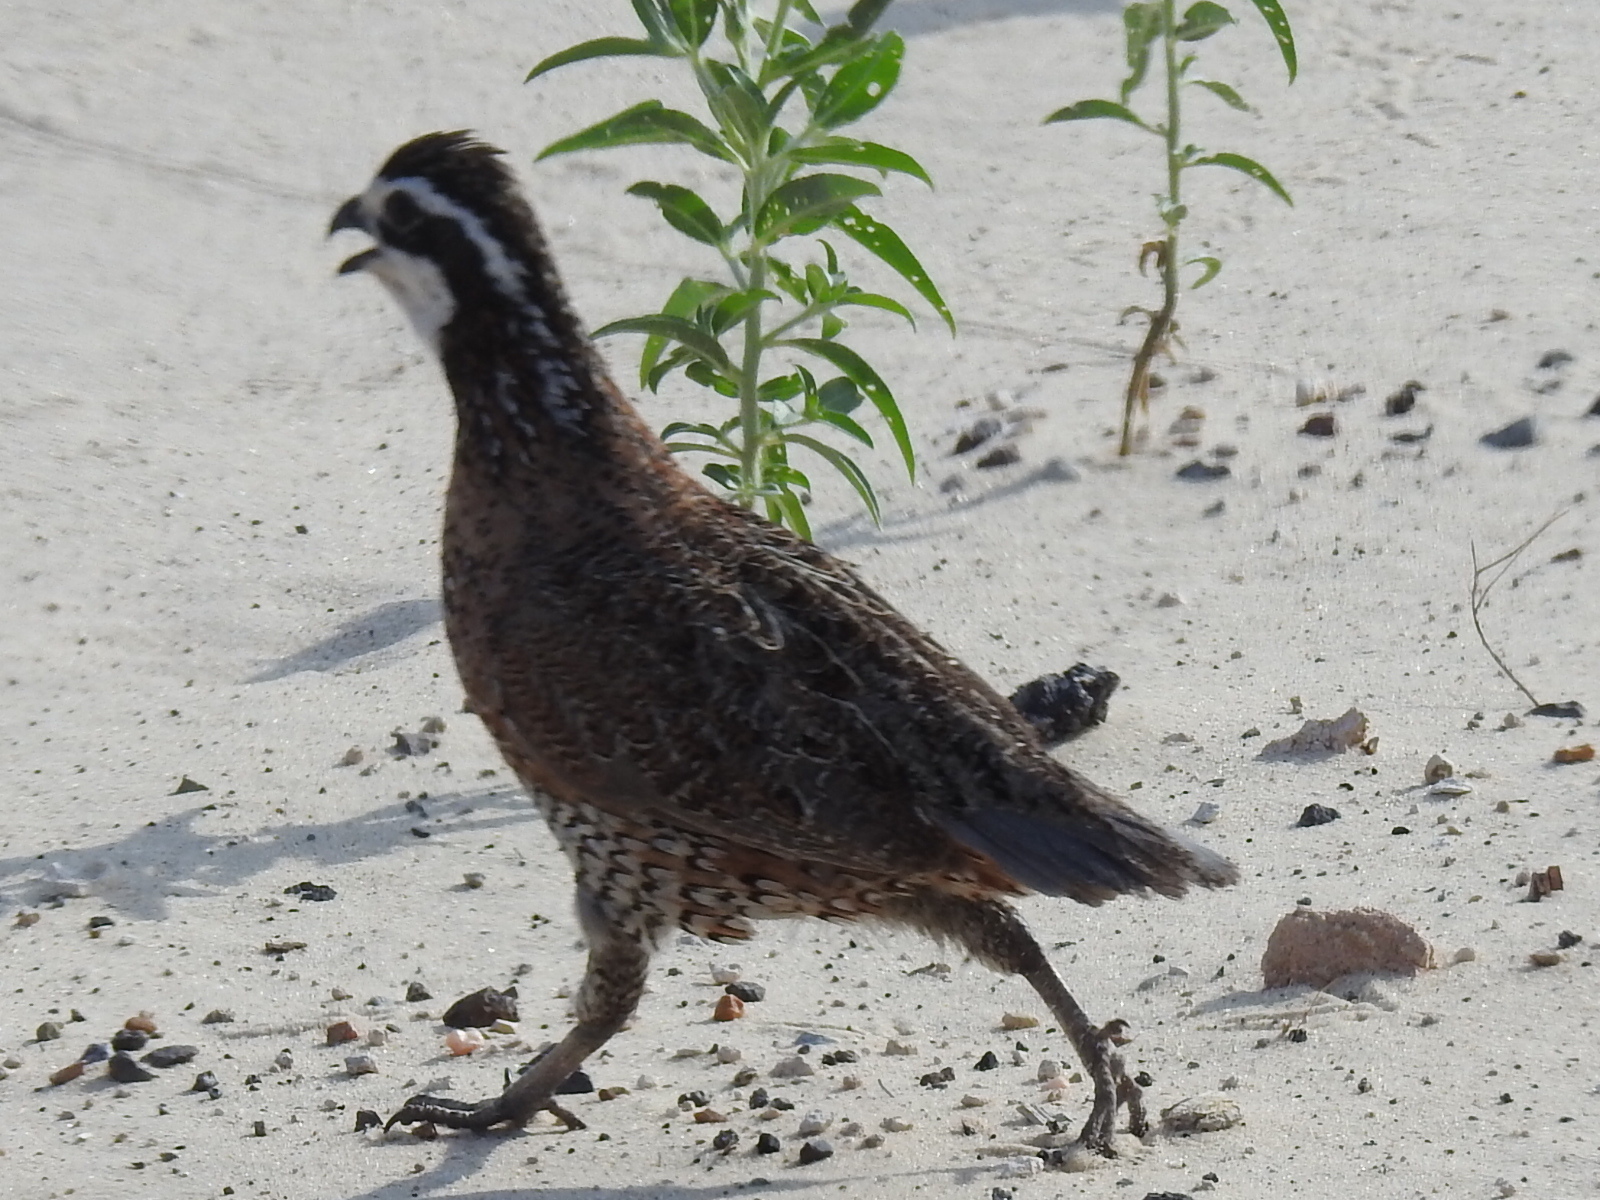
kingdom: Animalia
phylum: Chordata
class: Aves
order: Galliformes
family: Odontophoridae
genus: Colinus
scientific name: Colinus virginianus
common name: Northern bobwhite
